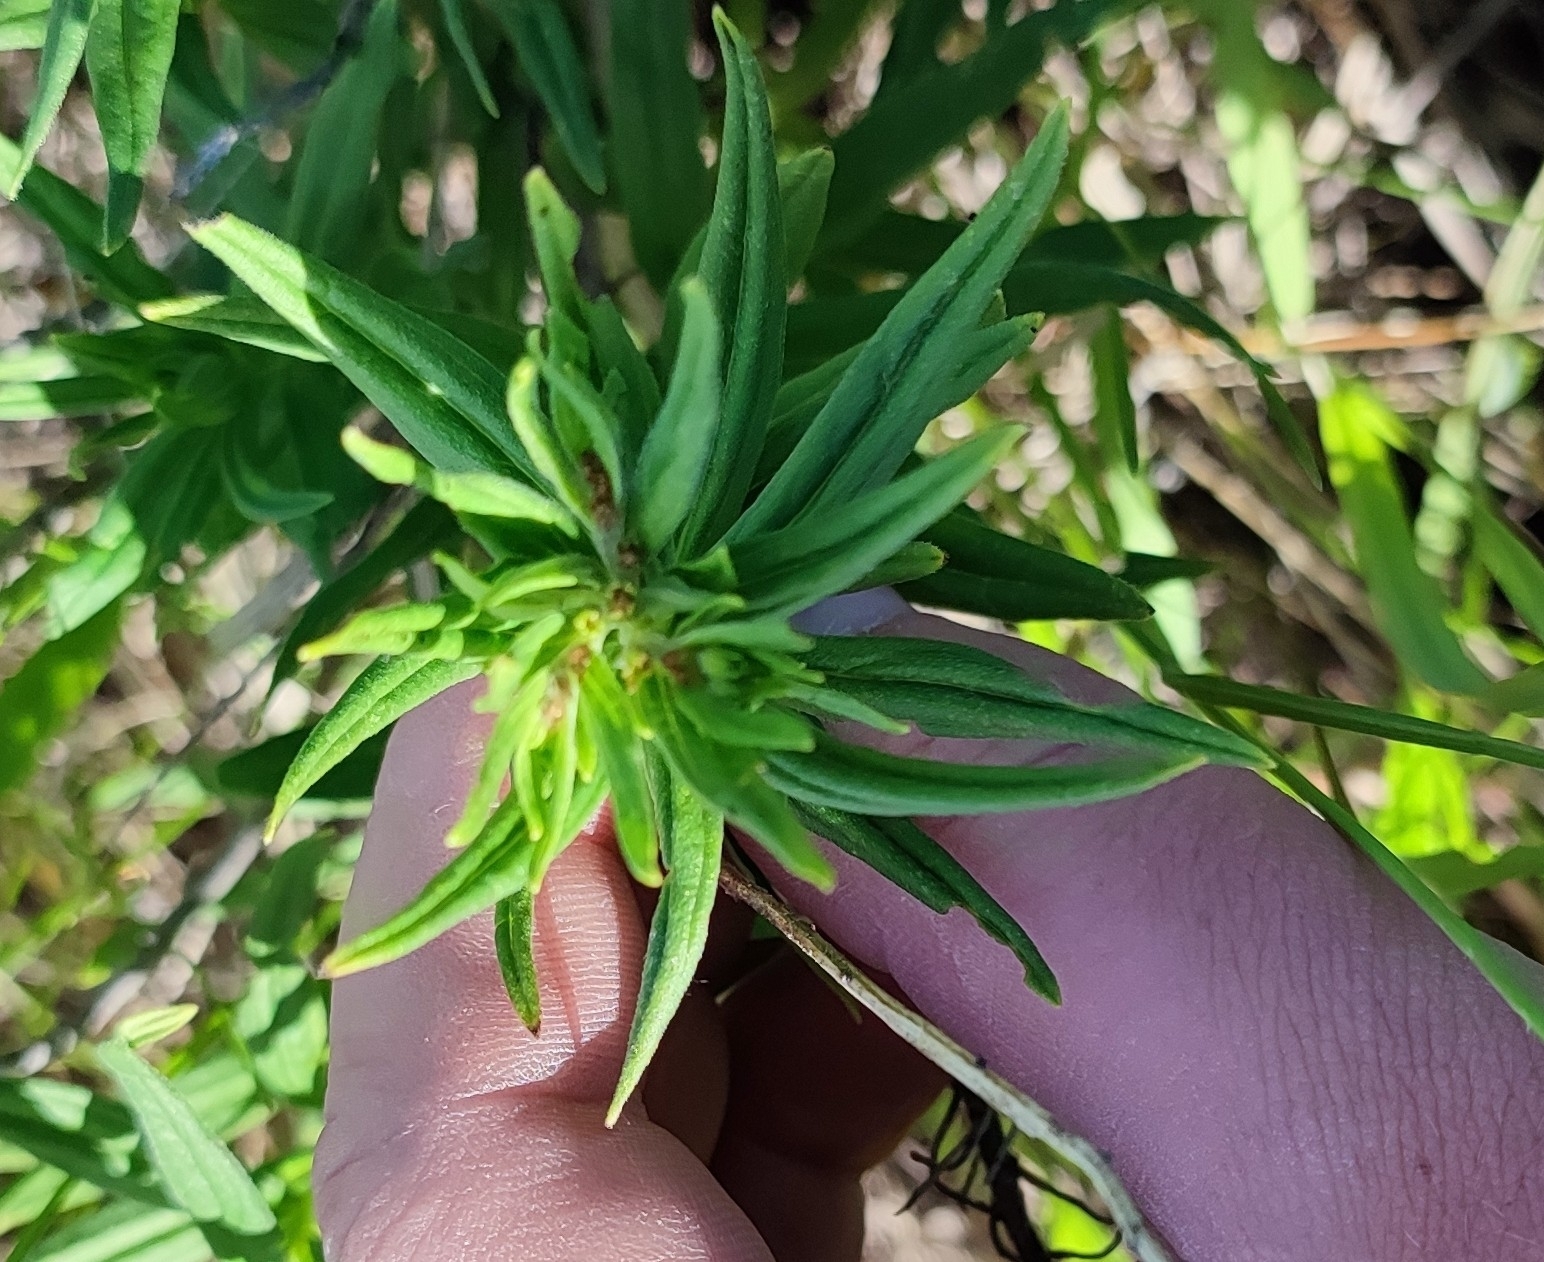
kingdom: Plantae
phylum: Tracheophyta
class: Magnoliopsida
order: Boraginales
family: Boraginaceae
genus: Lithospermum
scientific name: Lithospermum officinale
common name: Common gromwell
